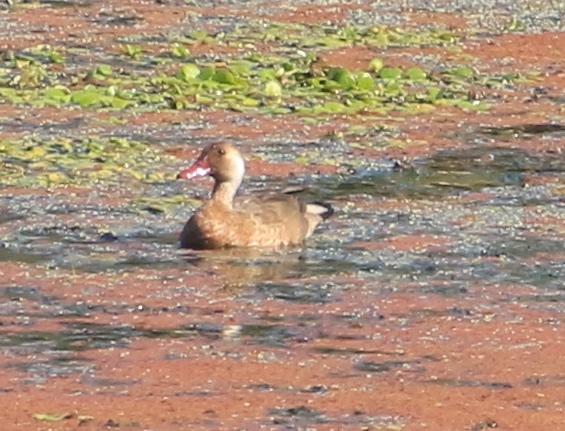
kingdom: Animalia
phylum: Chordata
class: Aves
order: Anseriformes
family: Anatidae
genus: Amazonetta
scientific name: Amazonetta brasiliensis
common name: Brazilian teal
